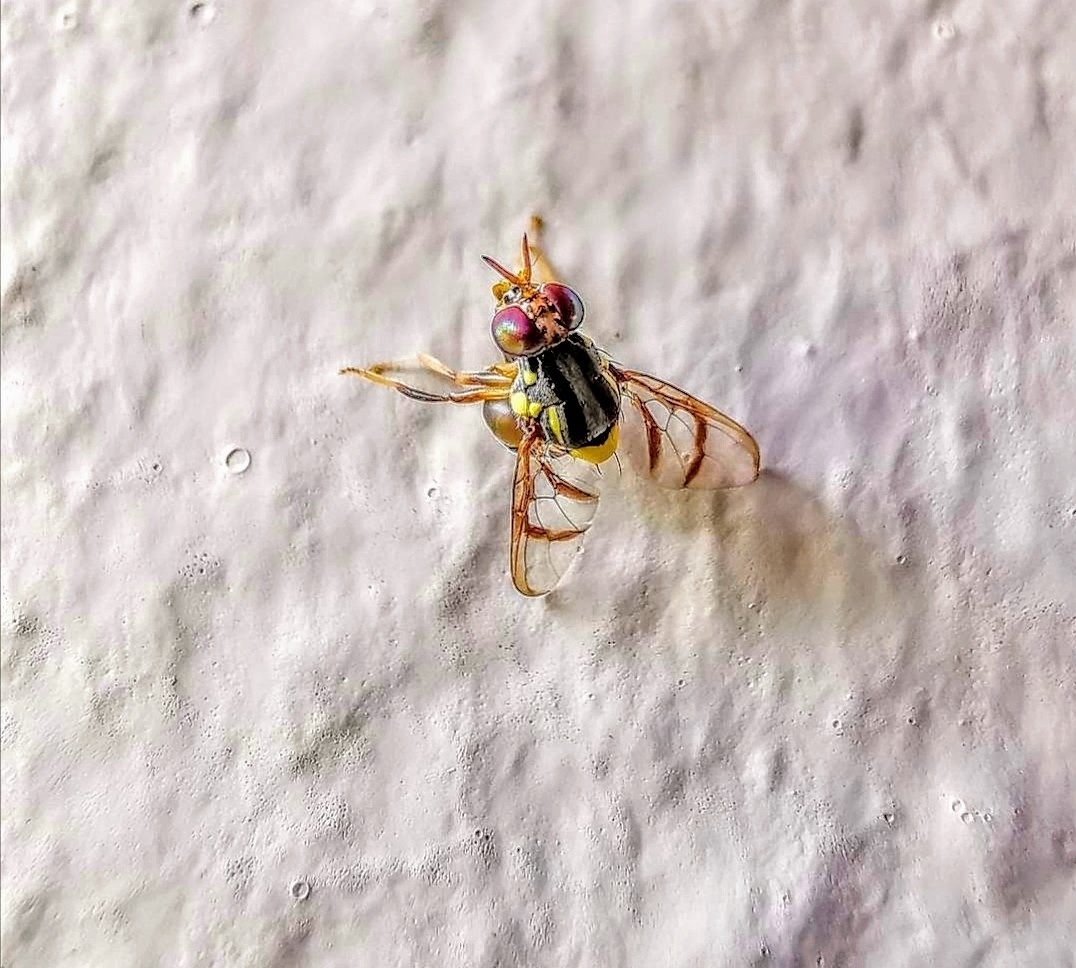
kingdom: Animalia
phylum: Arthropoda
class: Insecta
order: Diptera
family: Tephritidae
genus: Bactrocera
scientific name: Bactrocera albistrigata
